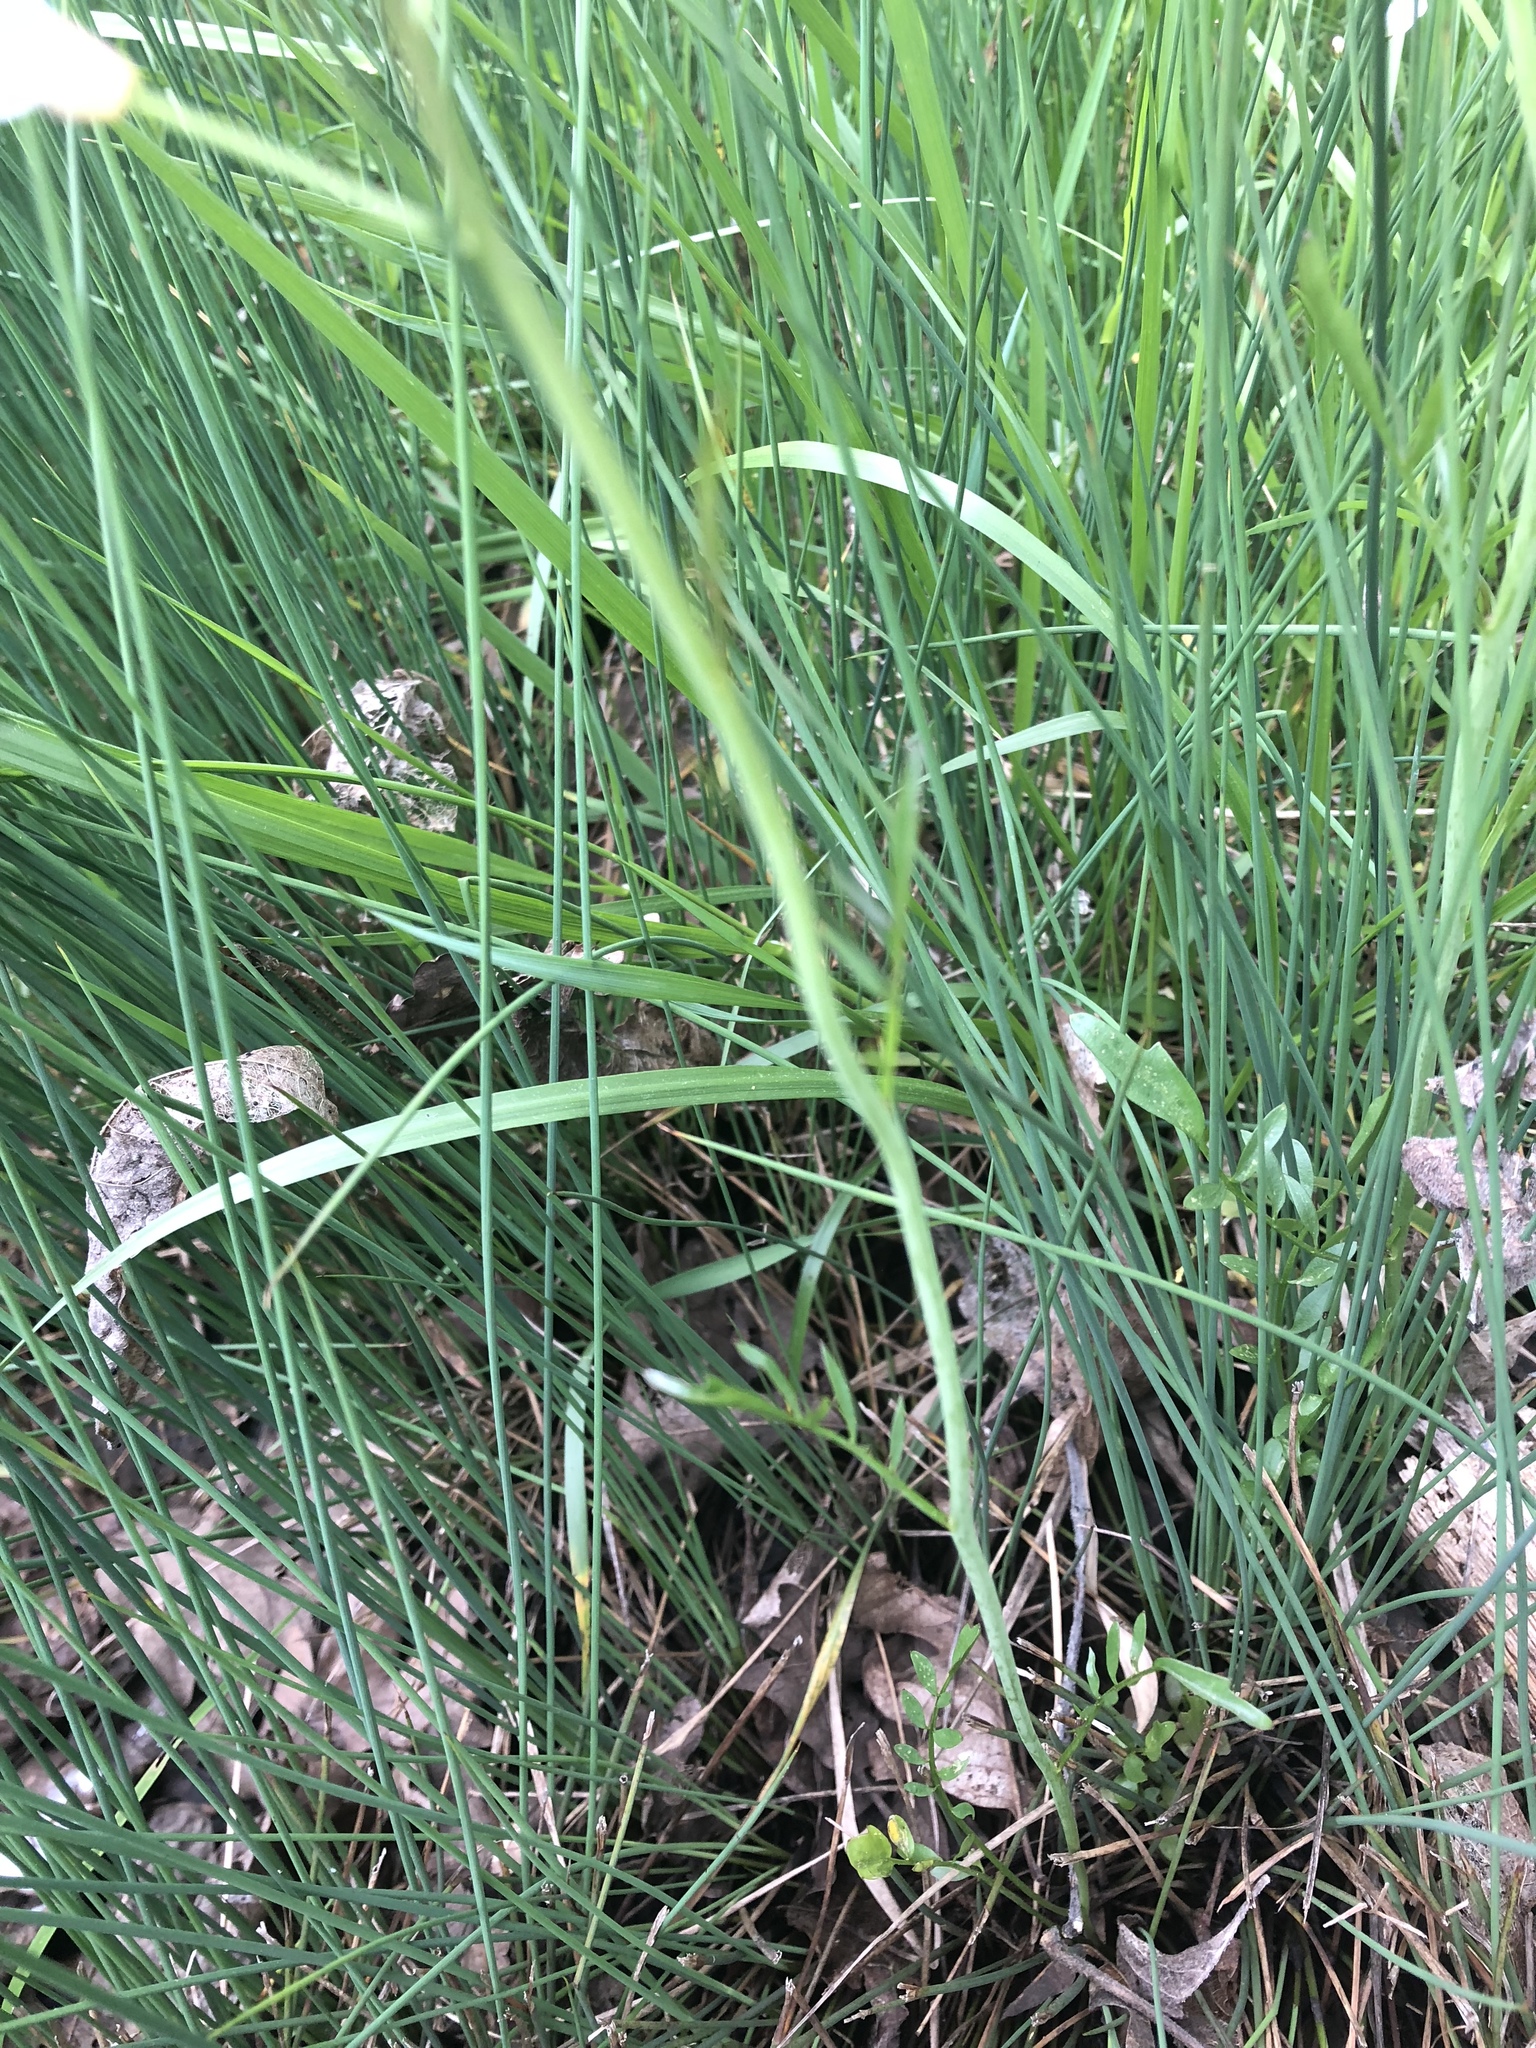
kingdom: Plantae
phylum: Tracheophyta
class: Magnoliopsida
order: Brassicales
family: Brassicaceae
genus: Cardamine
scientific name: Cardamine penduliflora
